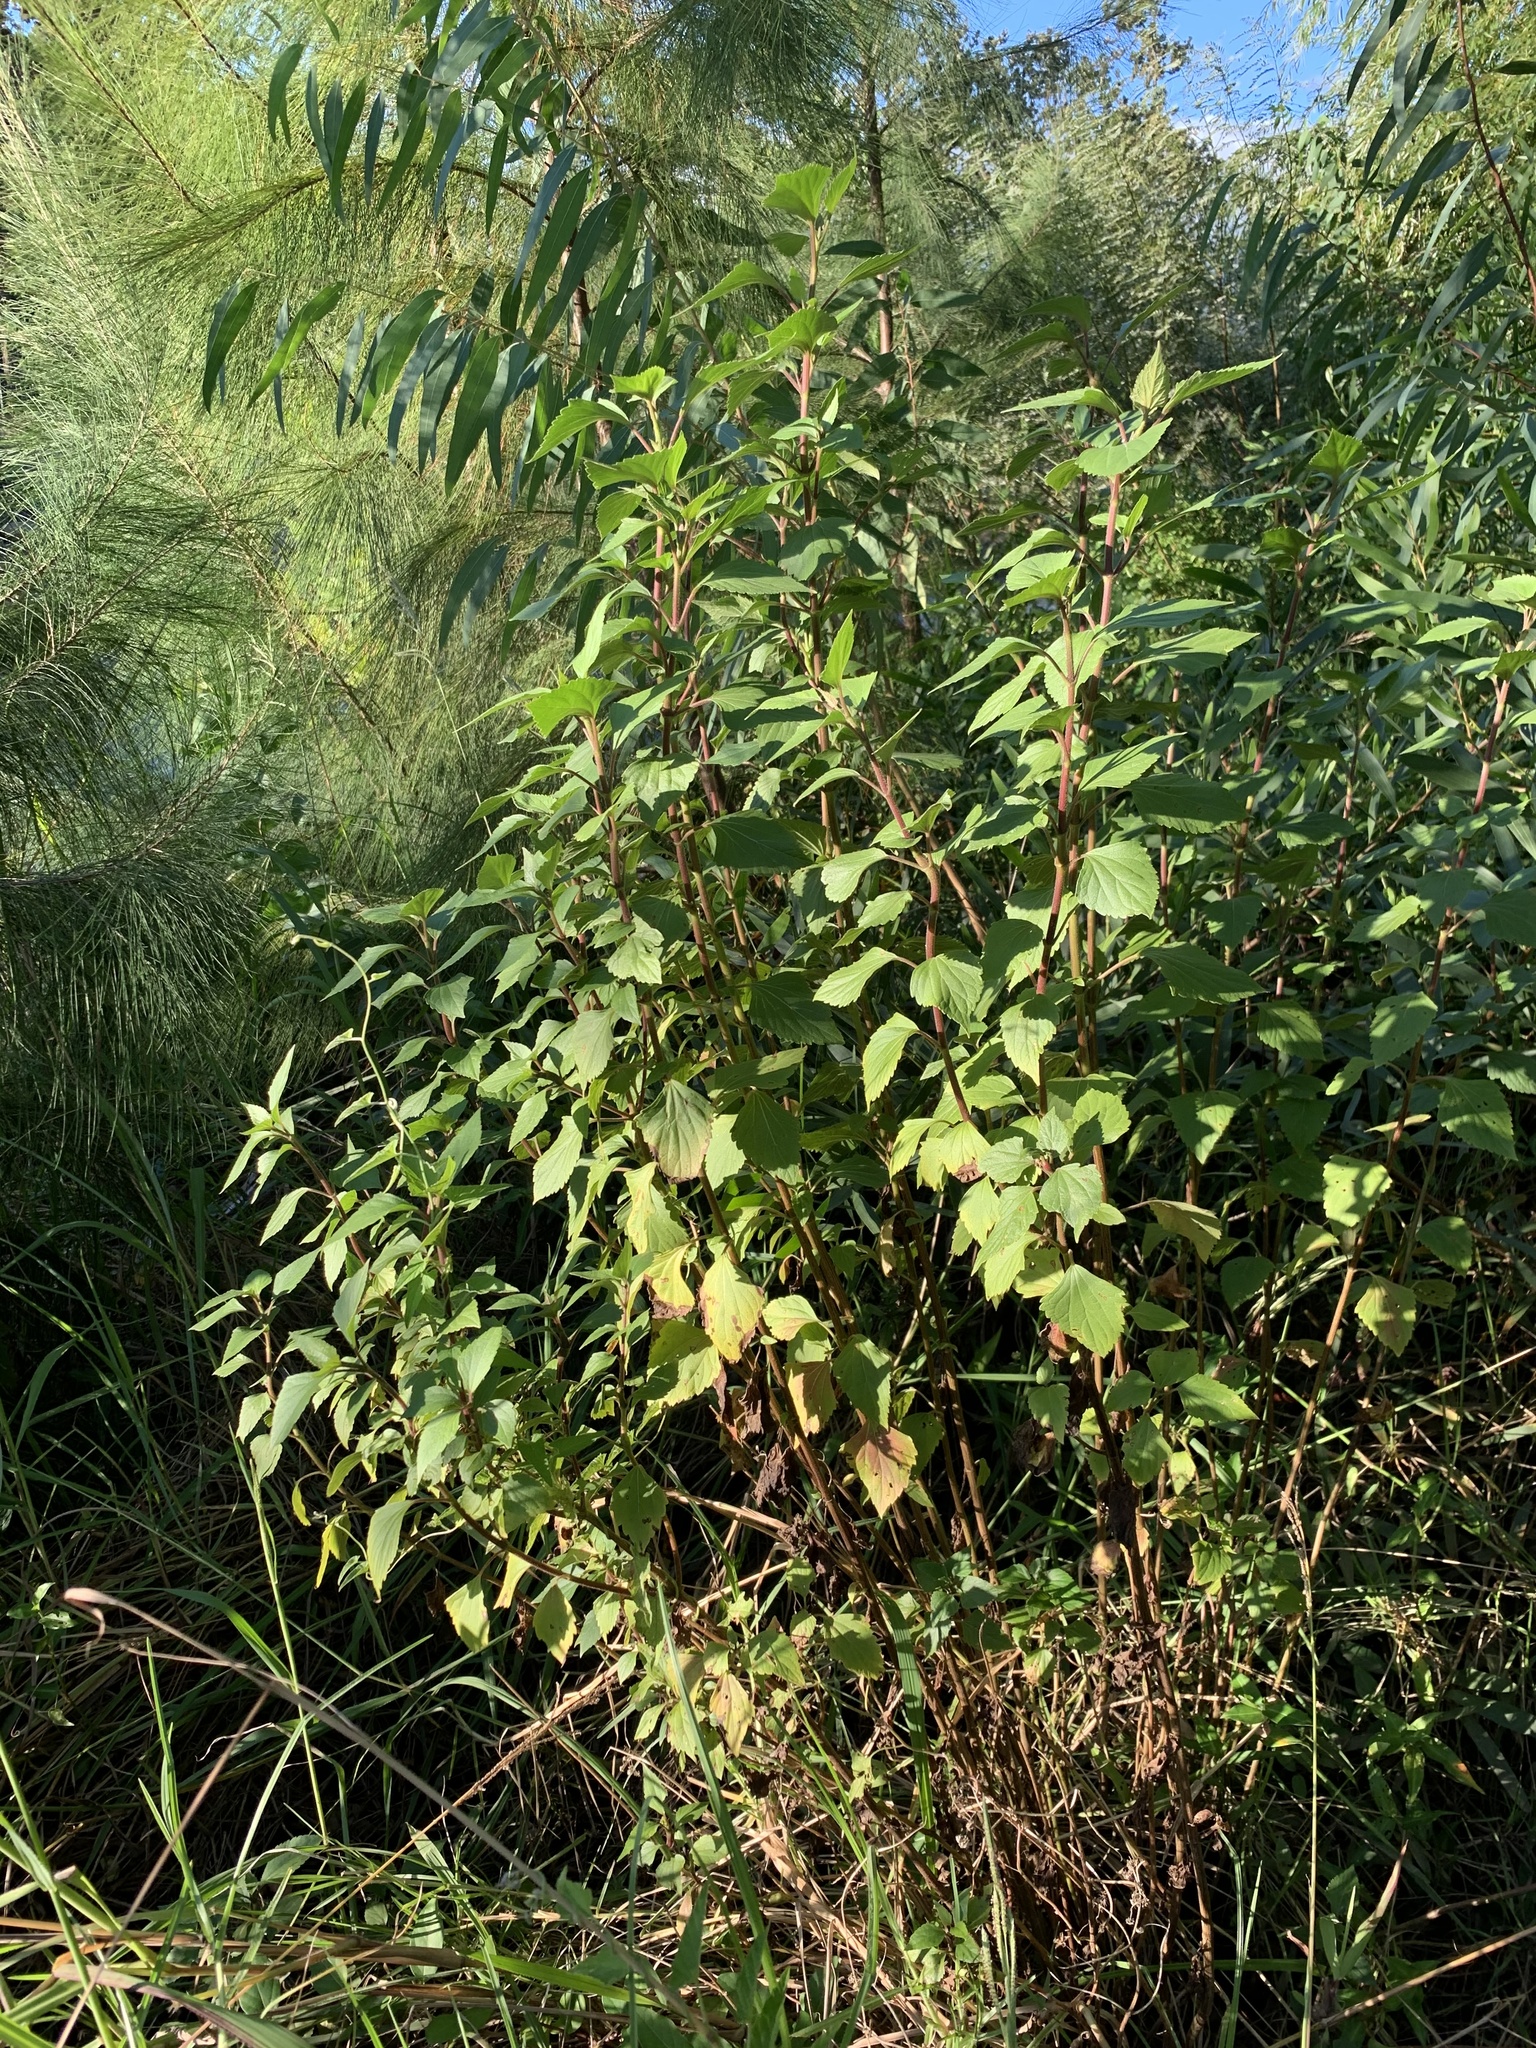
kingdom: Plantae
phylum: Tracheophyta
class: Magnoliopsida
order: Asterales
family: Asteraceae
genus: Ageratina
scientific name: Ageratina adenophora
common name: Sticky snakeroot
